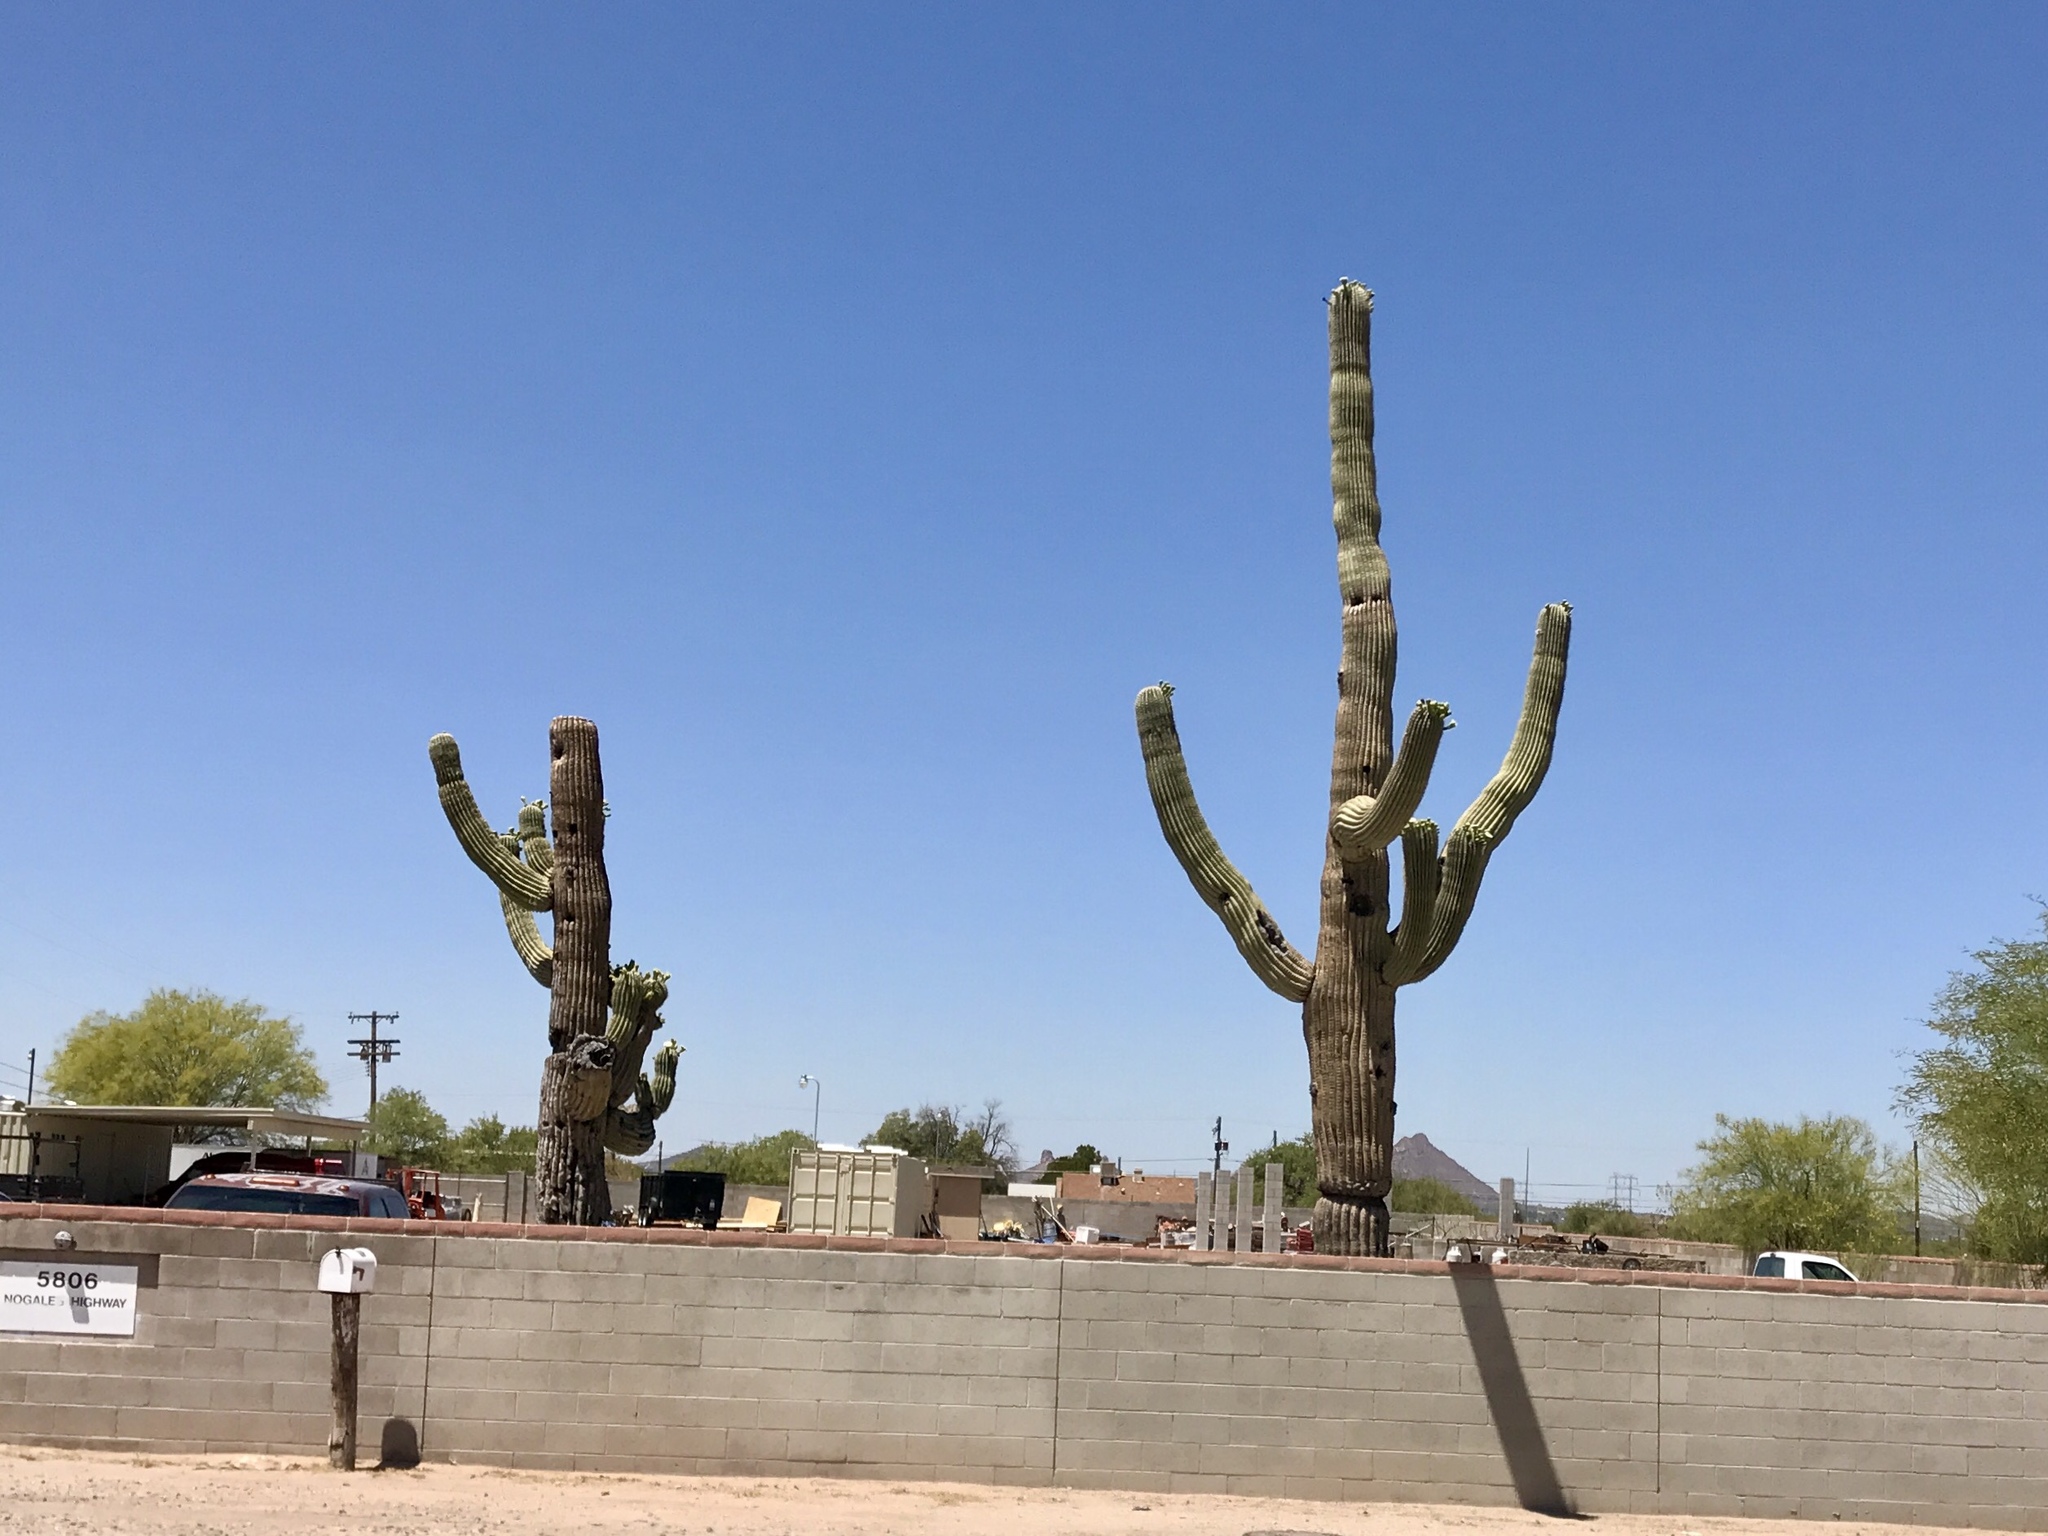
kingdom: Plantae
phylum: Tracheophyta
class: Magnoliopsida
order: Caryophyllales
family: Cactaceae
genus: Carnegiea
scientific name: Carnegiea gigantea
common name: Saguaro
